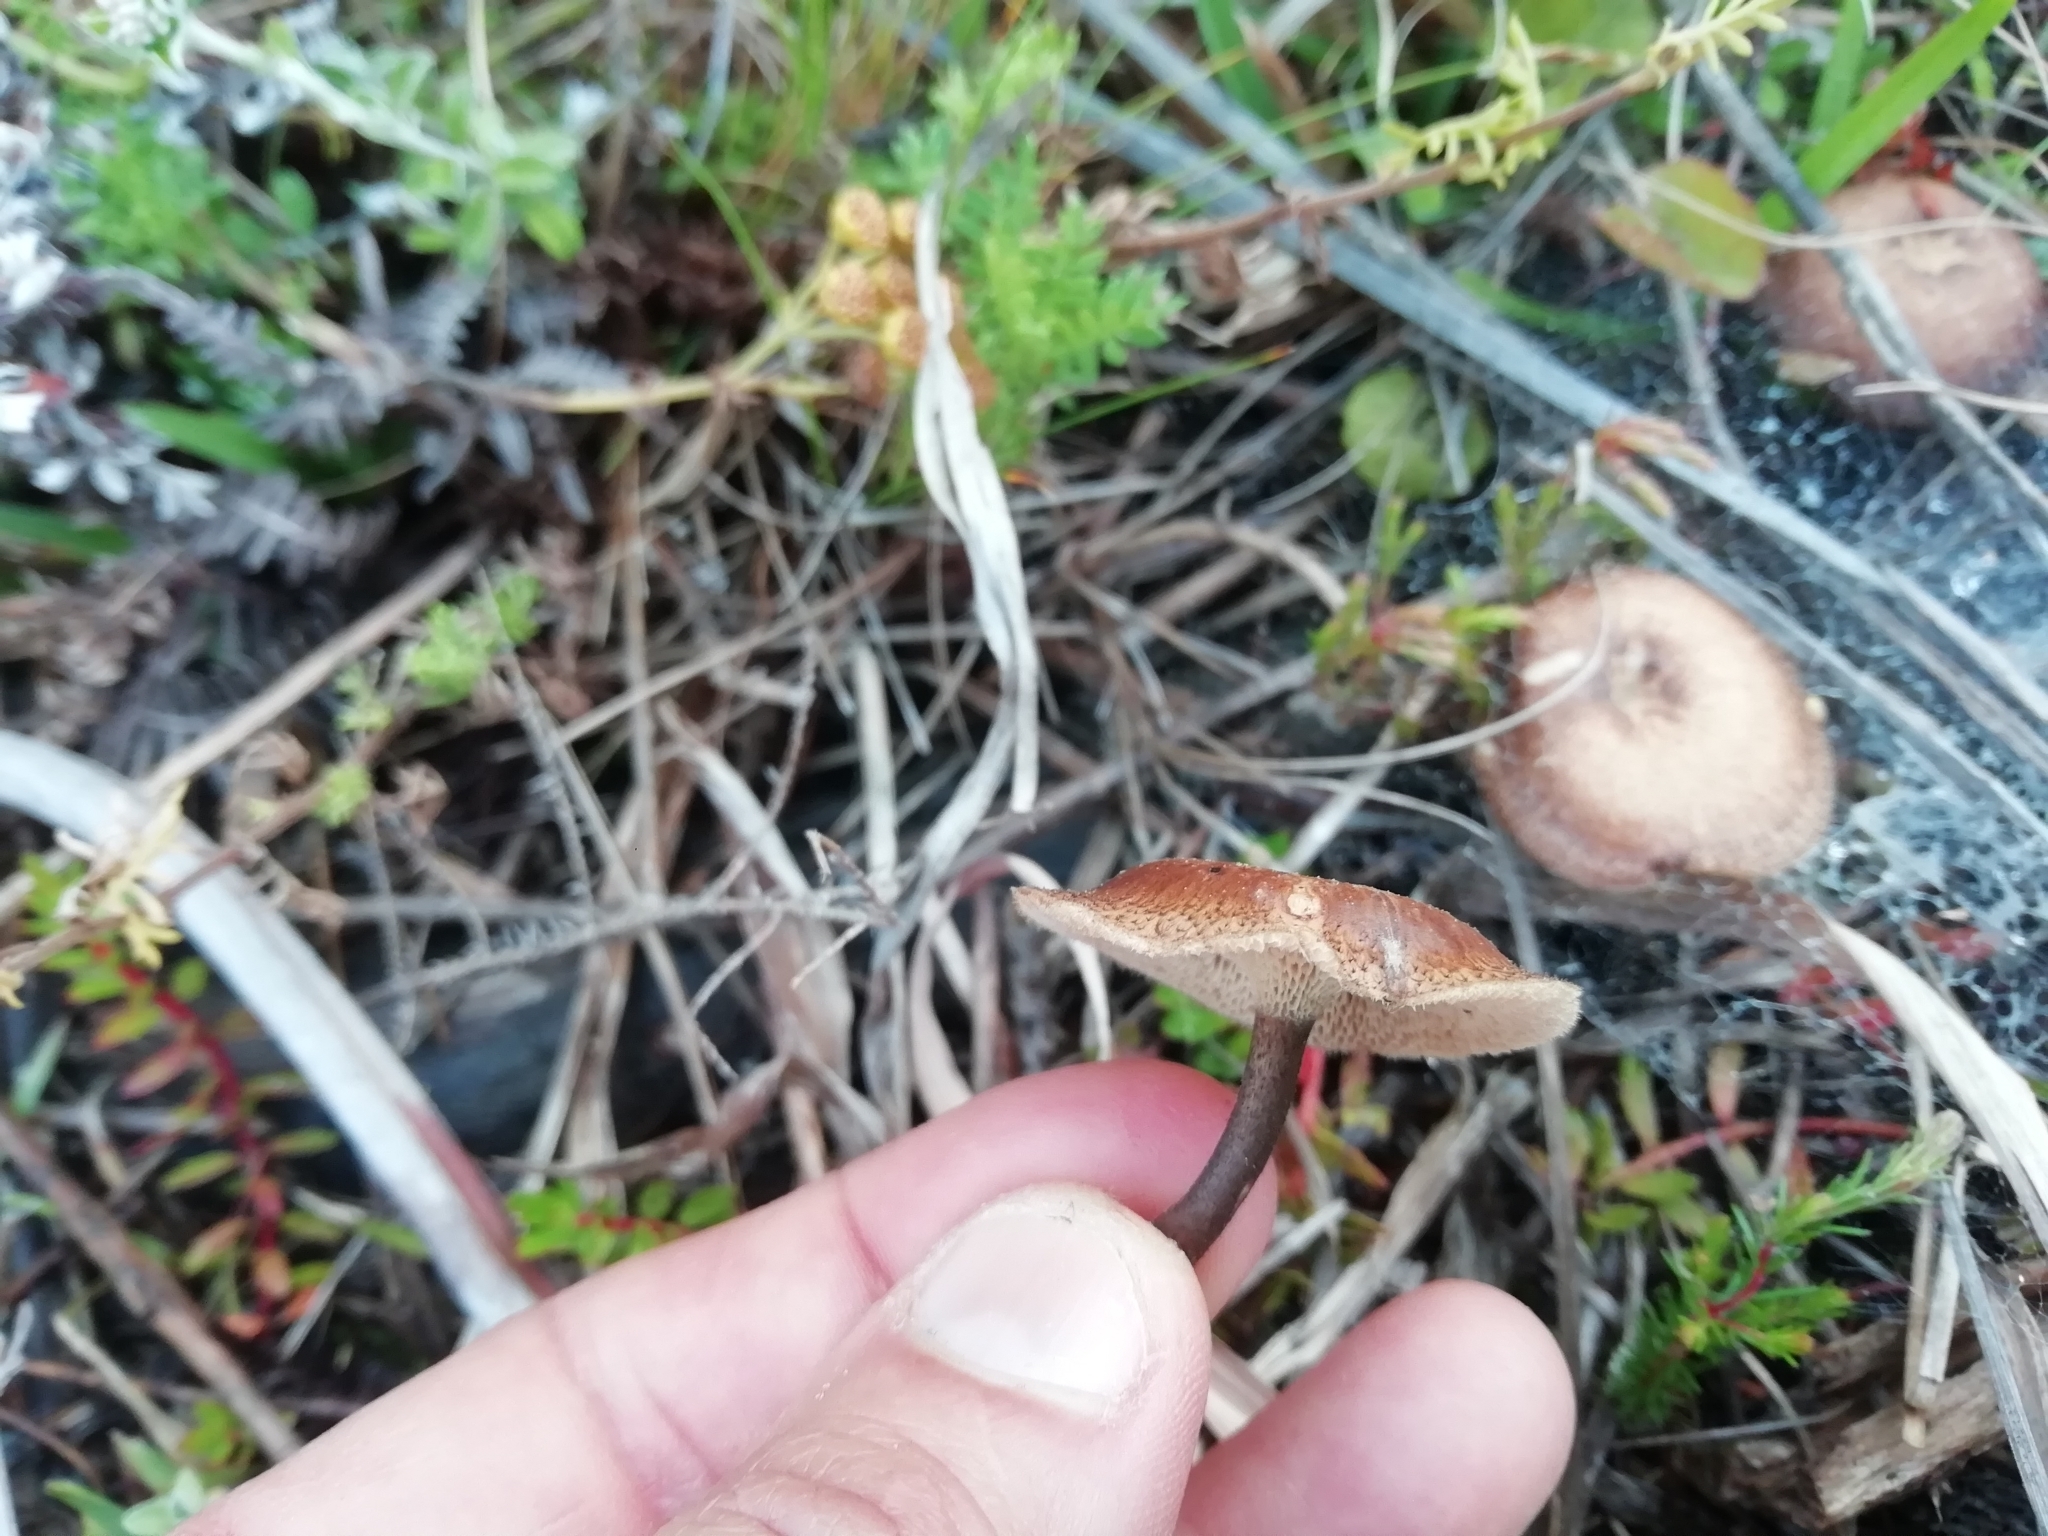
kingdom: Fungi
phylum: Basidiomycota
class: Agaricomycetes
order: Polyporales
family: Polyporaceae
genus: Lentinus
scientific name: Lentinus arcularius
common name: Spring polypore
